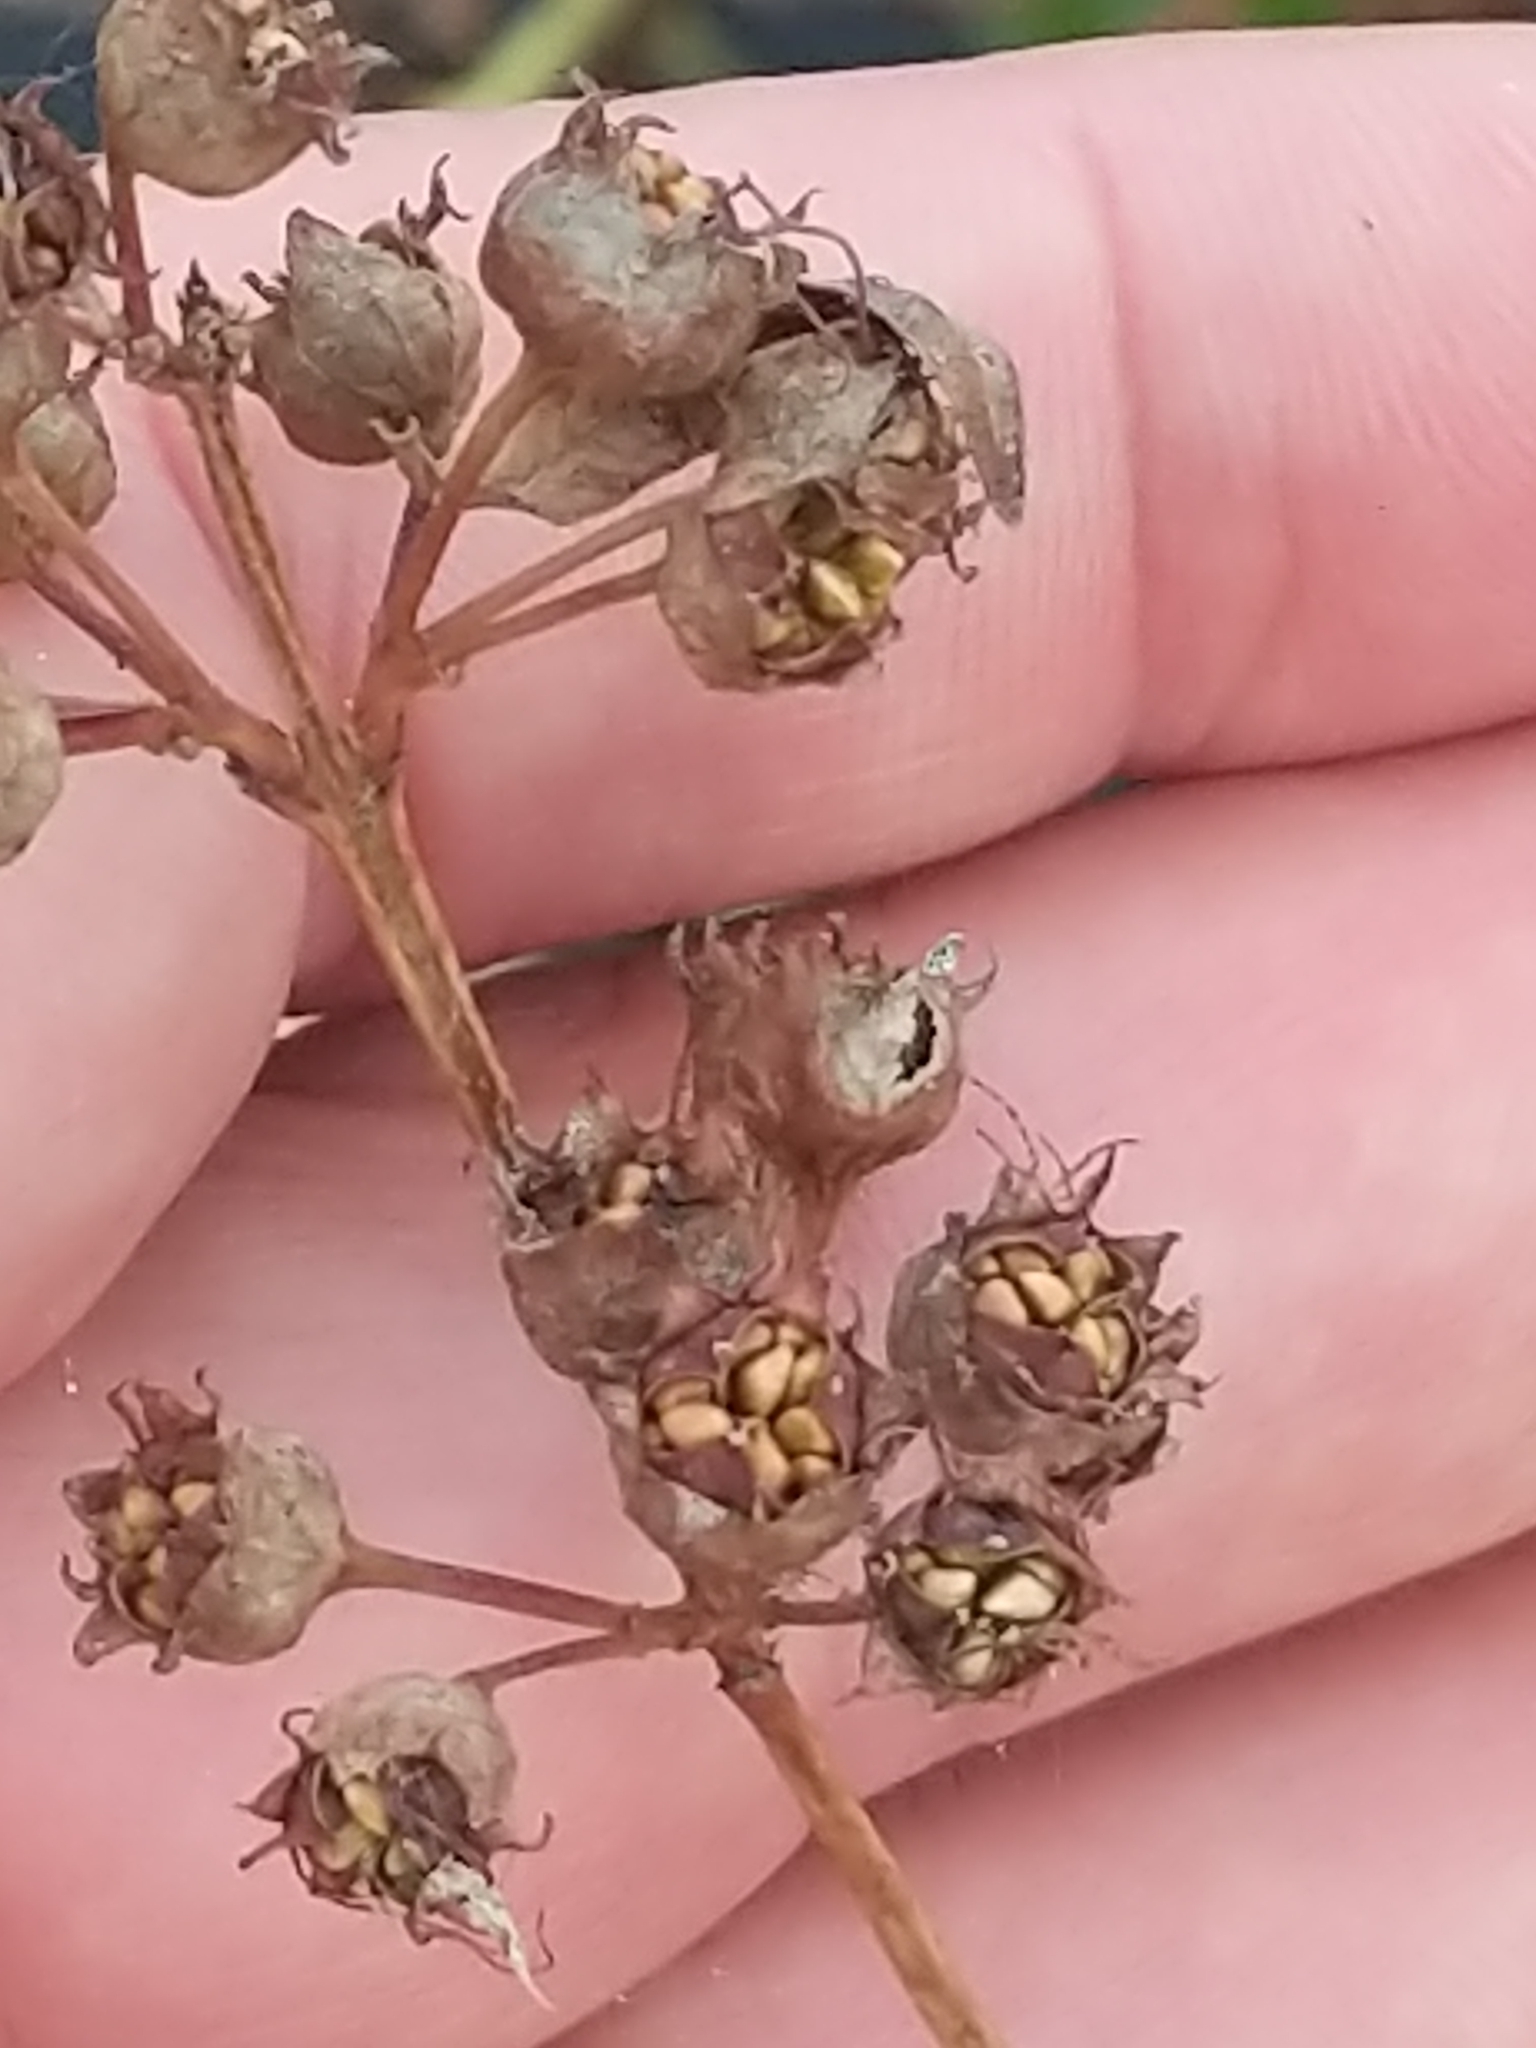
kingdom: Plantae
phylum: Tracheophyta
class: Magnoliopsida
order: Myrtales
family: Lythraceae
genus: Decodon
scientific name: Decodon verticillatus
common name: Hairy swamp loosestrife
